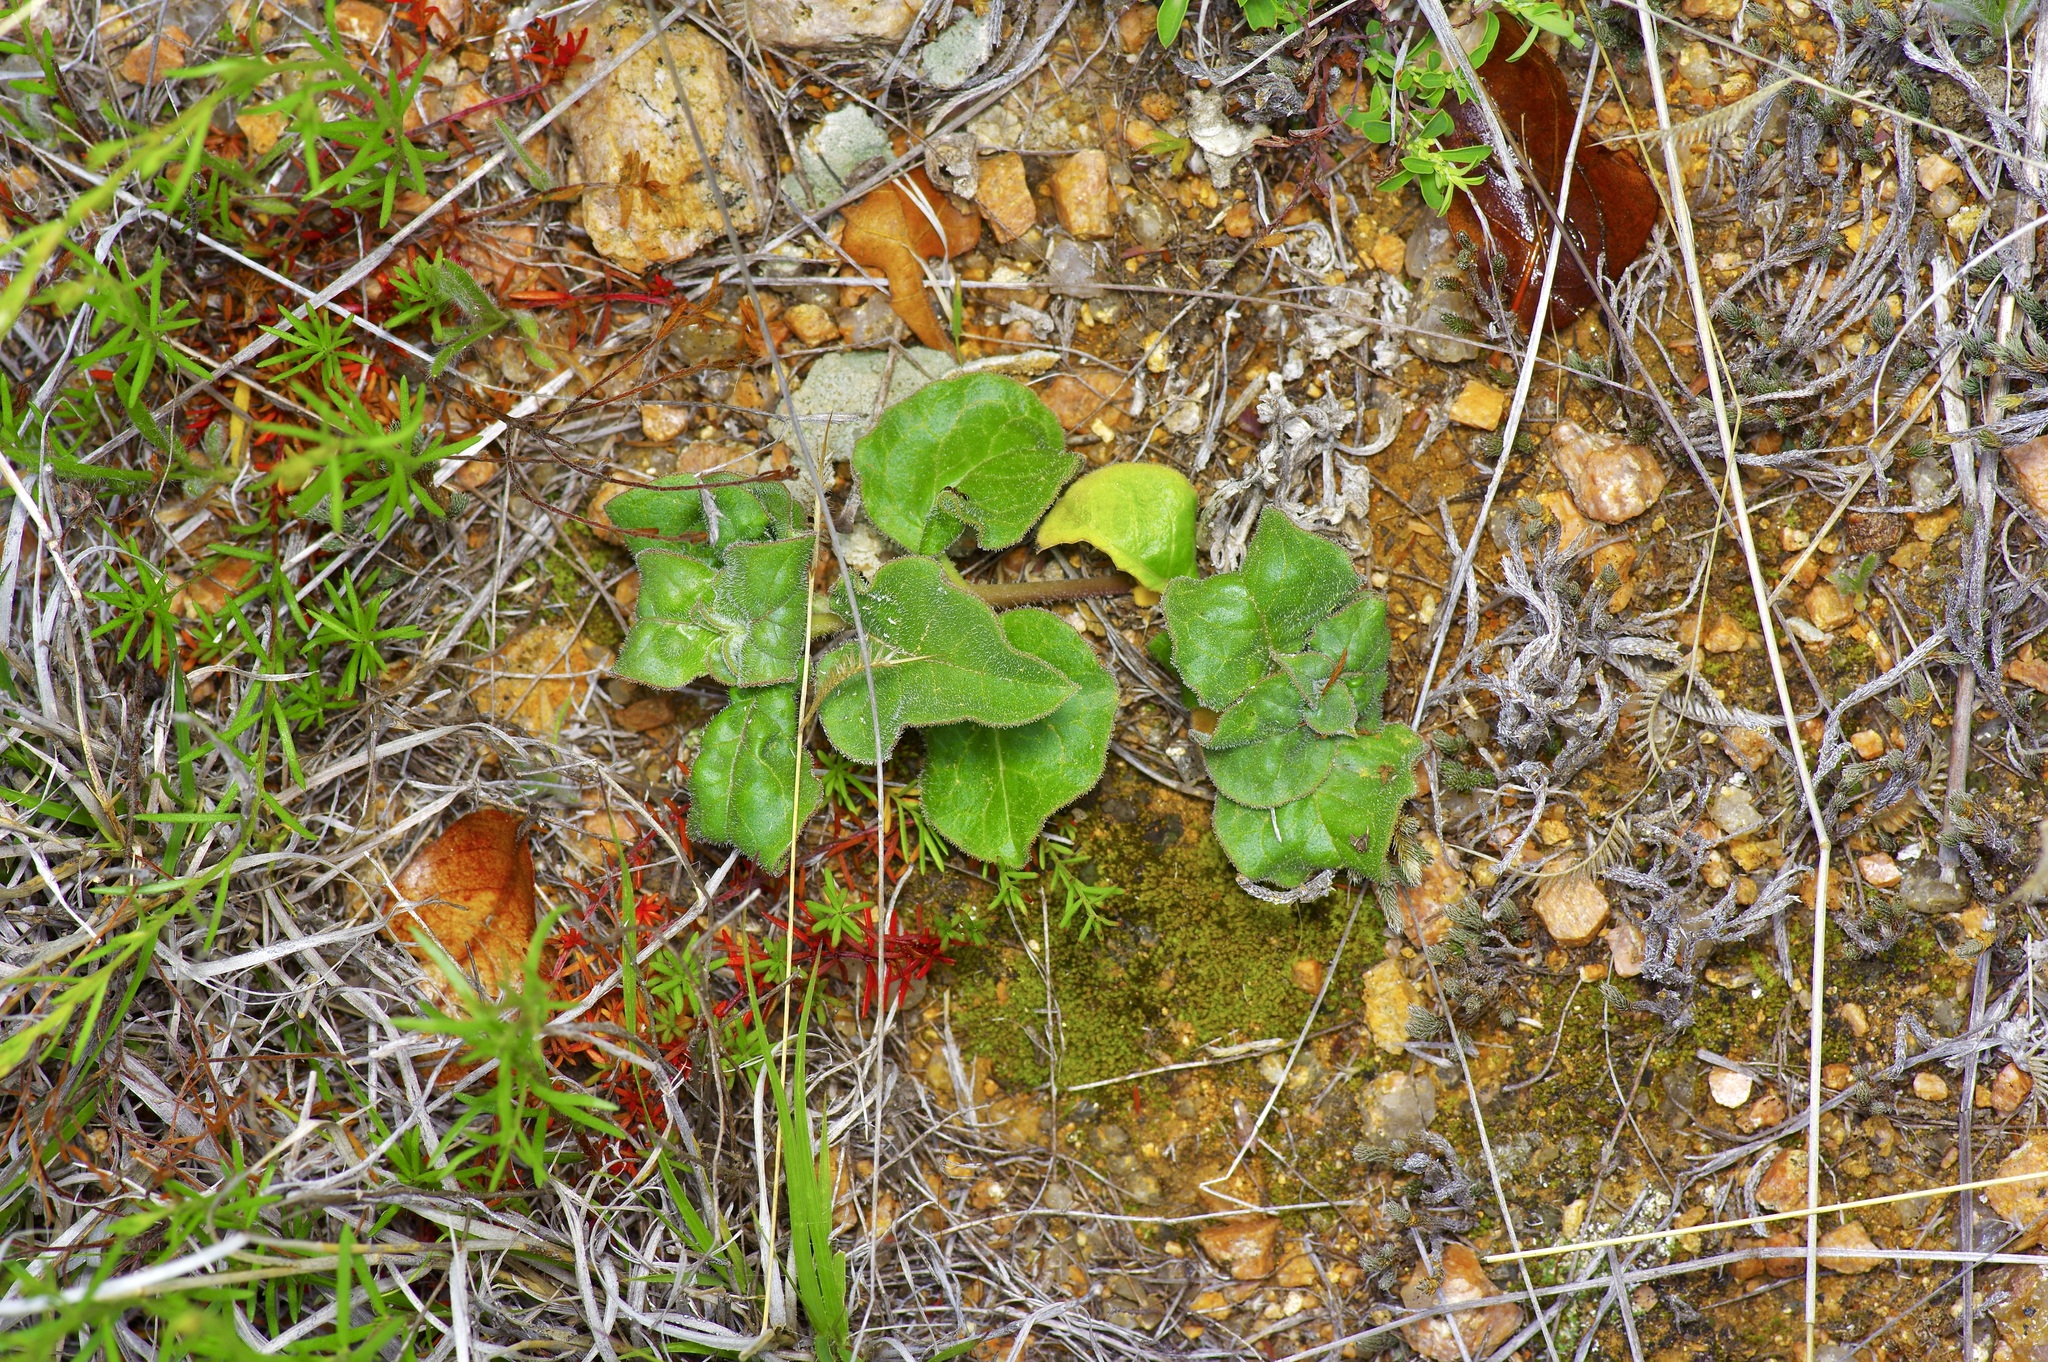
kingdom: Plantae
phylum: Tracheophyta
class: Magnoliopsida
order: Gentianales
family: Apocynaceae
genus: Asclepias
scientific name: Asclepias oenotheroides
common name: Zizotes milkweed
